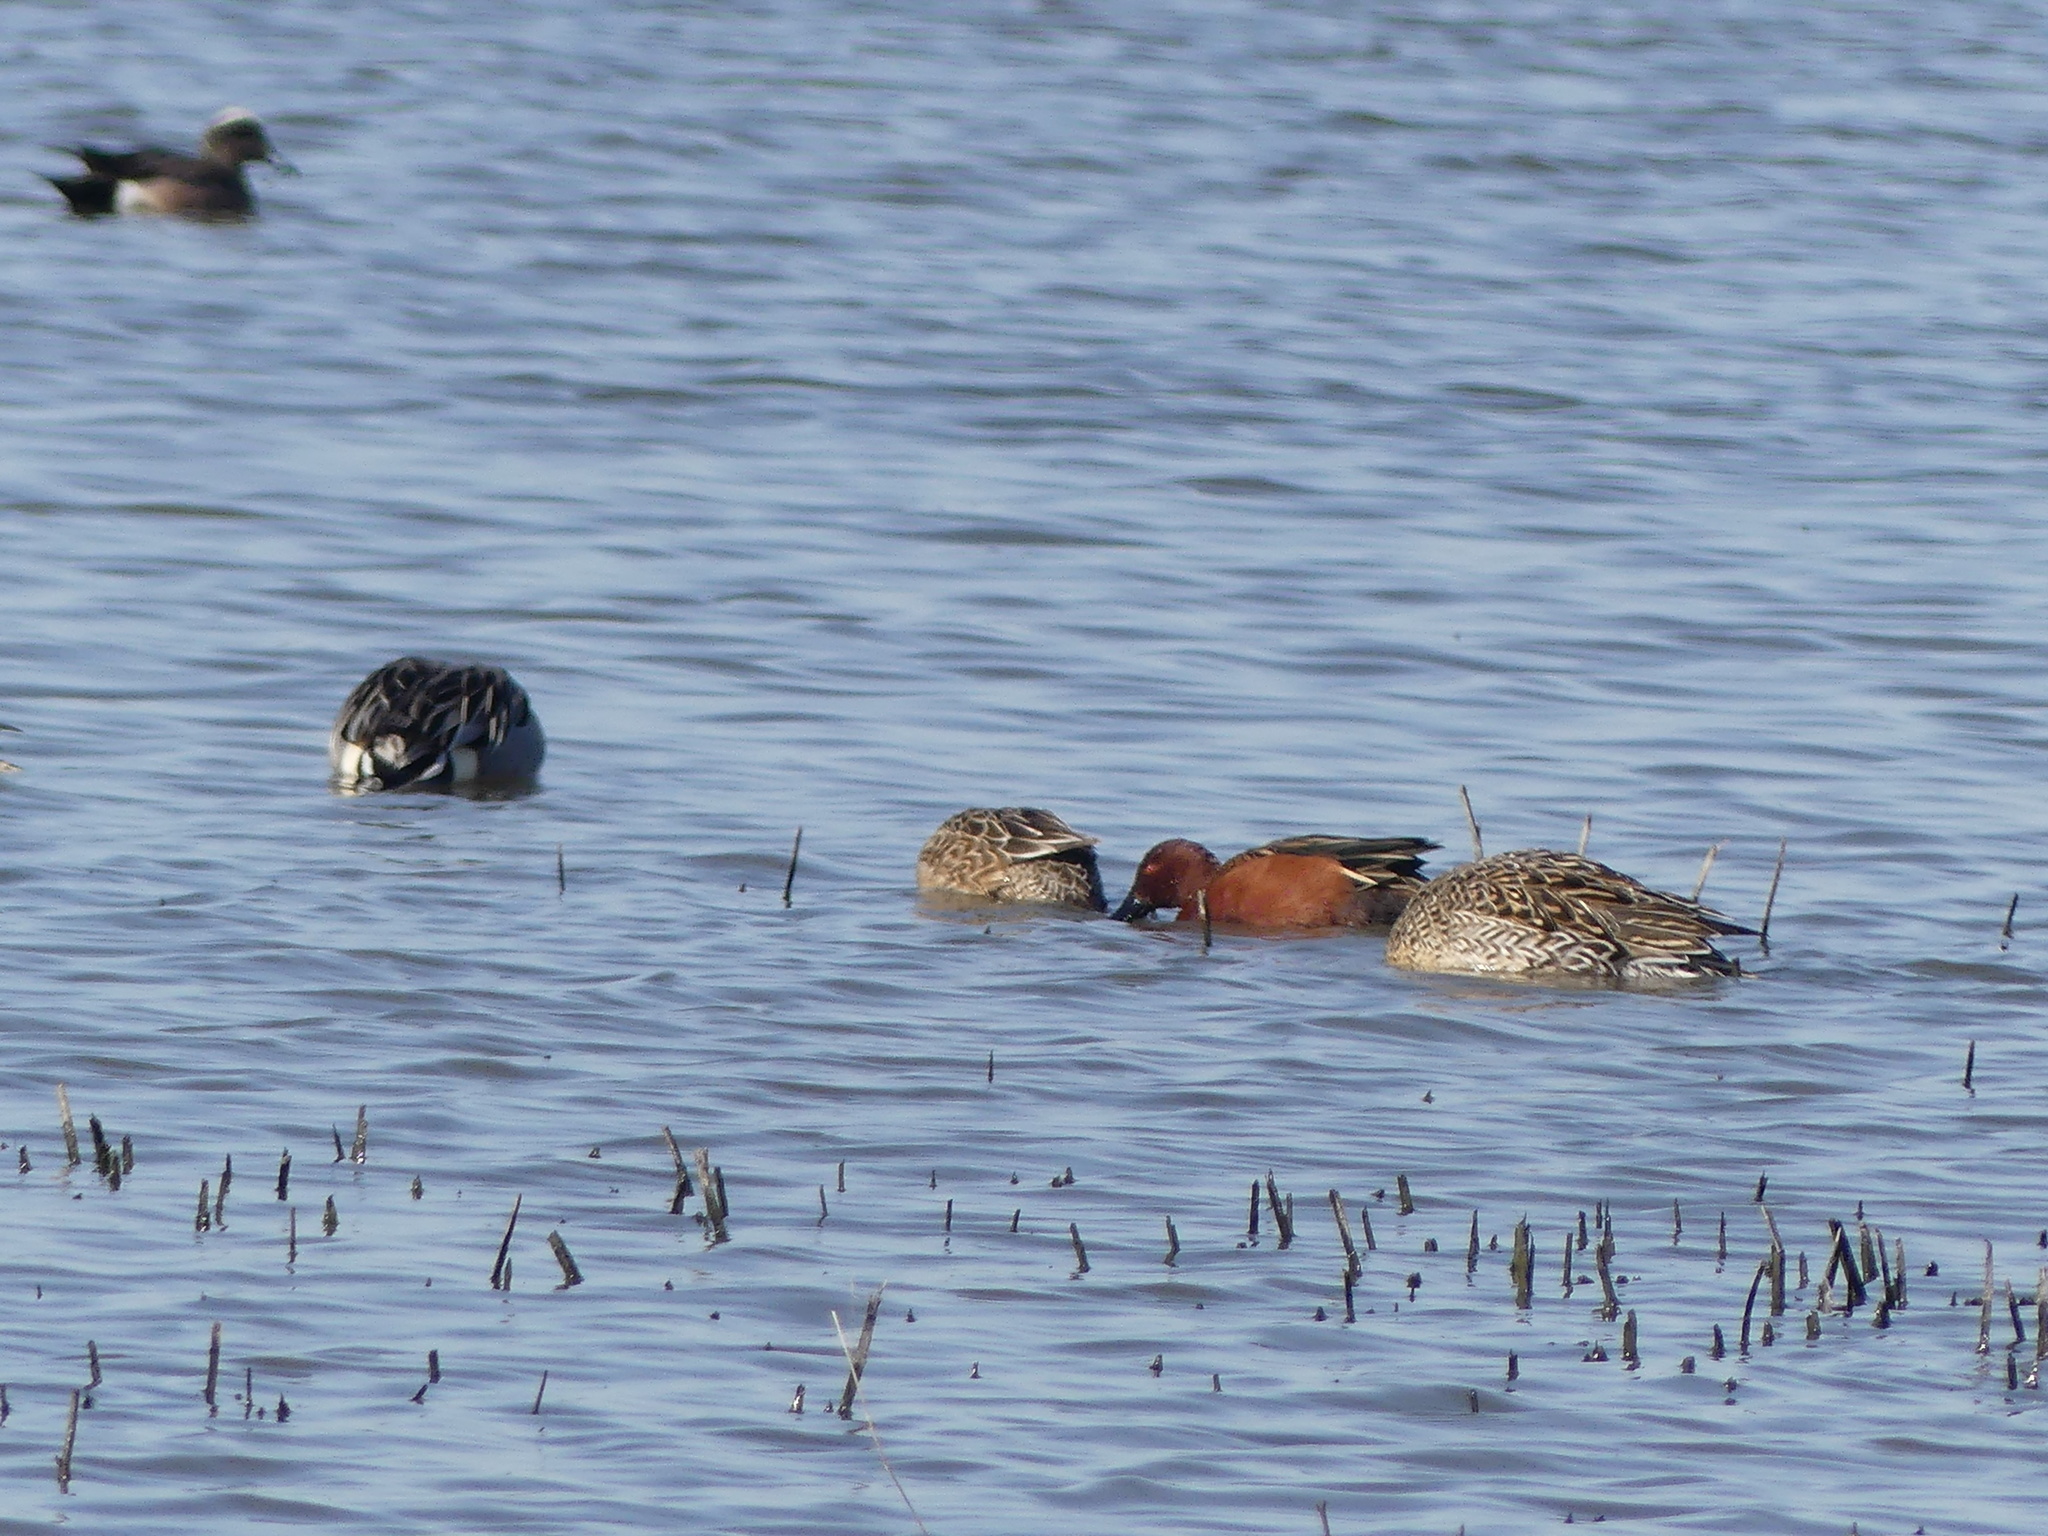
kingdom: Animalia
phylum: Chordata
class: Aves
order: Anseriformes
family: Anatidae
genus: Spatula
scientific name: Spatula cyanoptera
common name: Cinnamon teal
